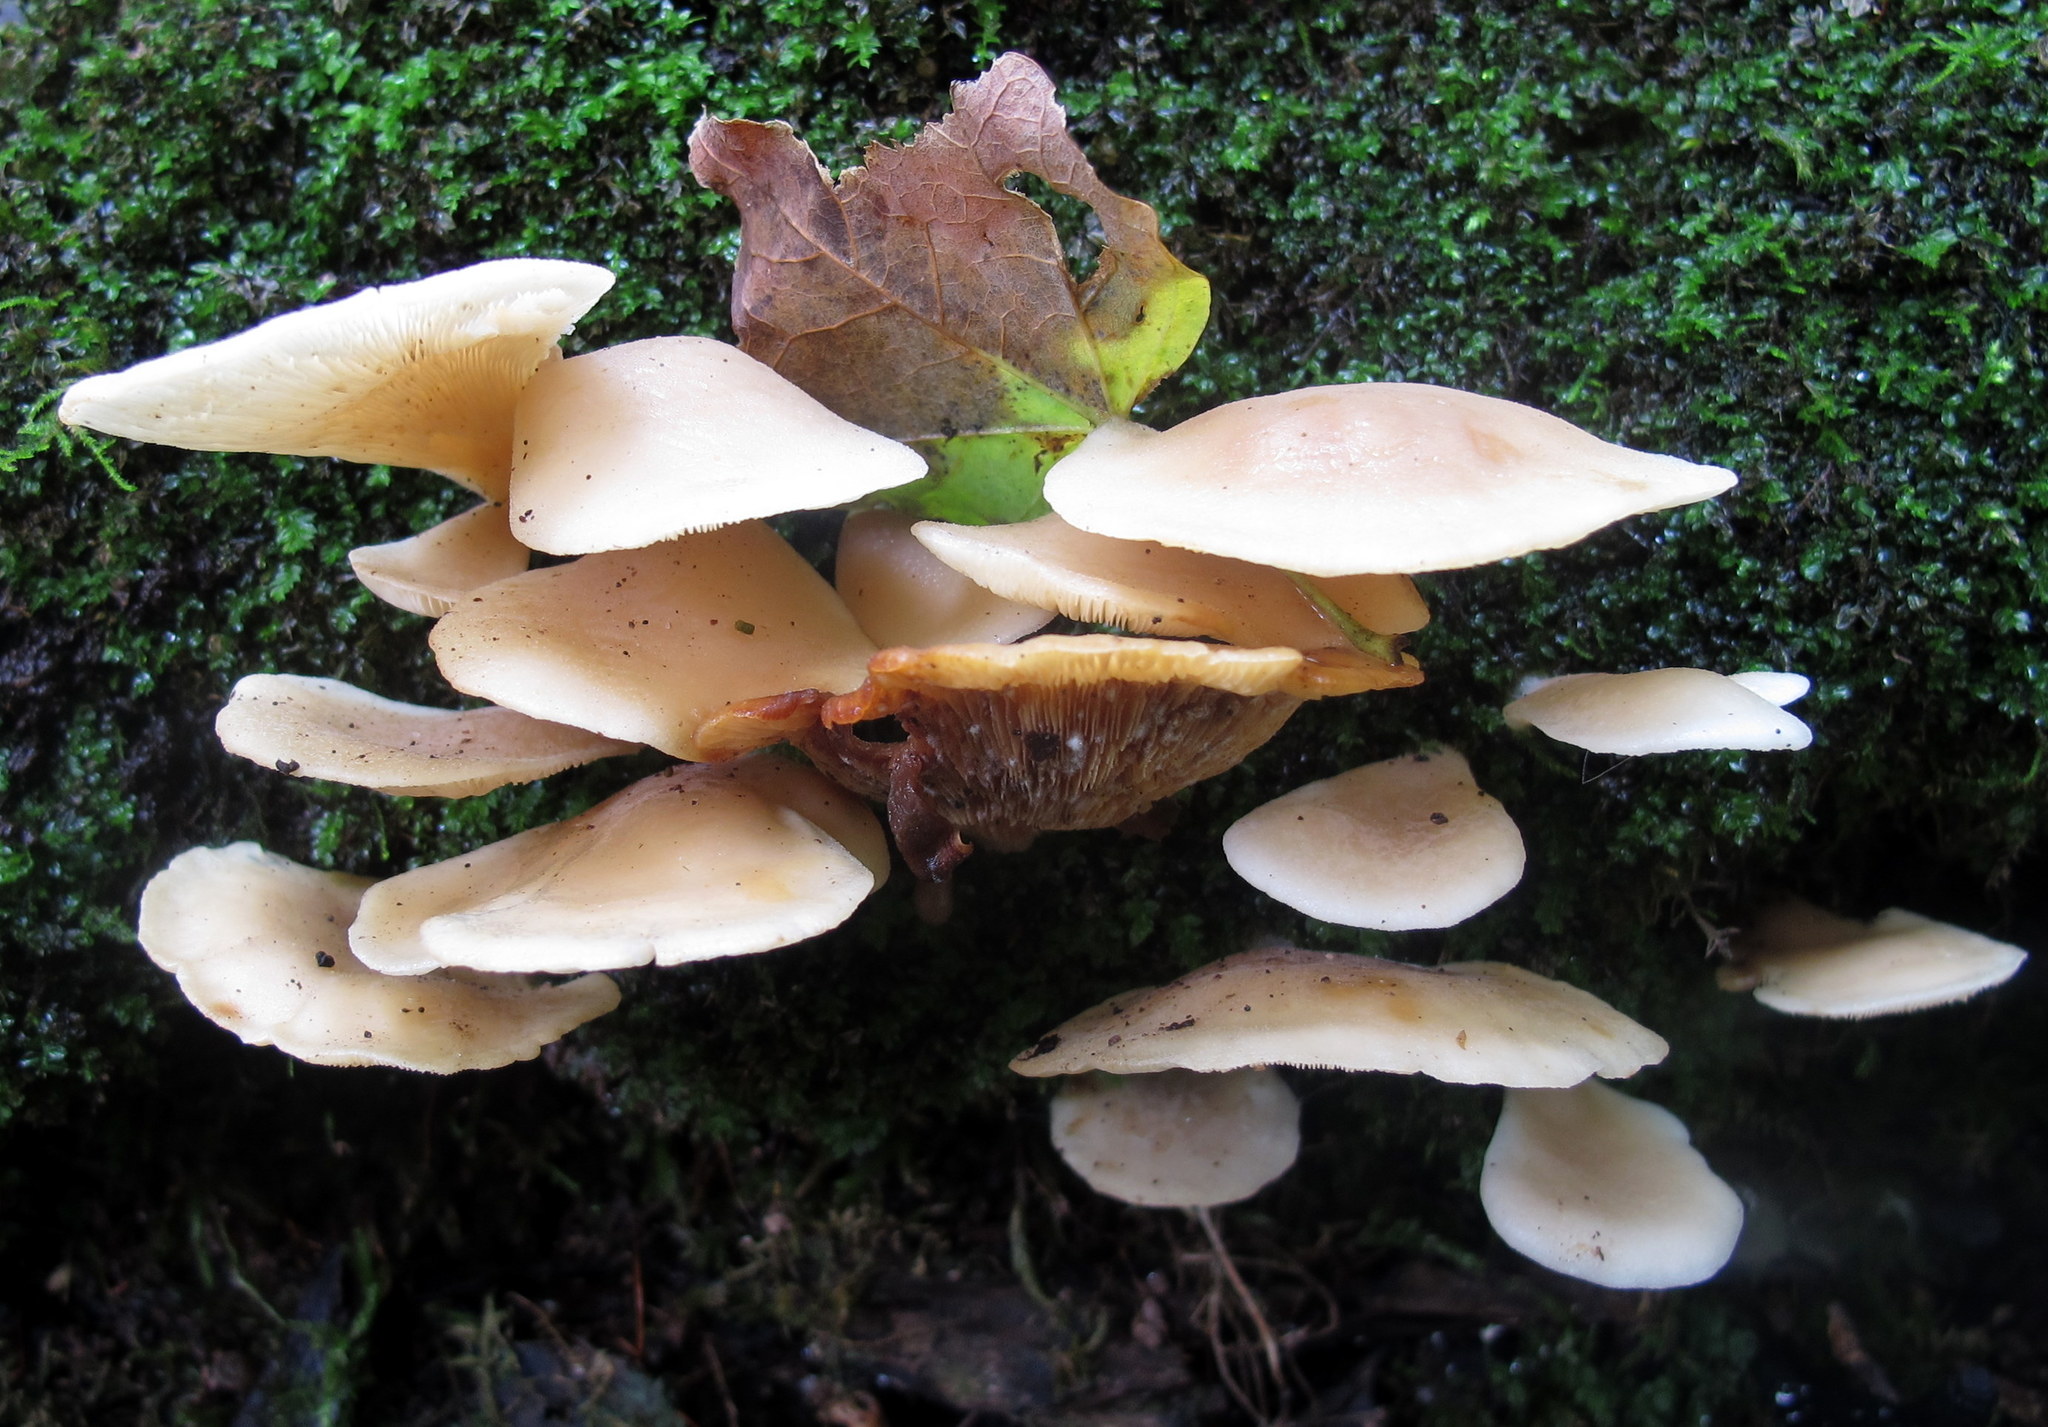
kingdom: Fungi
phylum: Basidiomycota
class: Agaricomycetes
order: Agaricales
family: Pleurotaceae
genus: Hohenbuehelia
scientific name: Hohenbuehelia angustata
